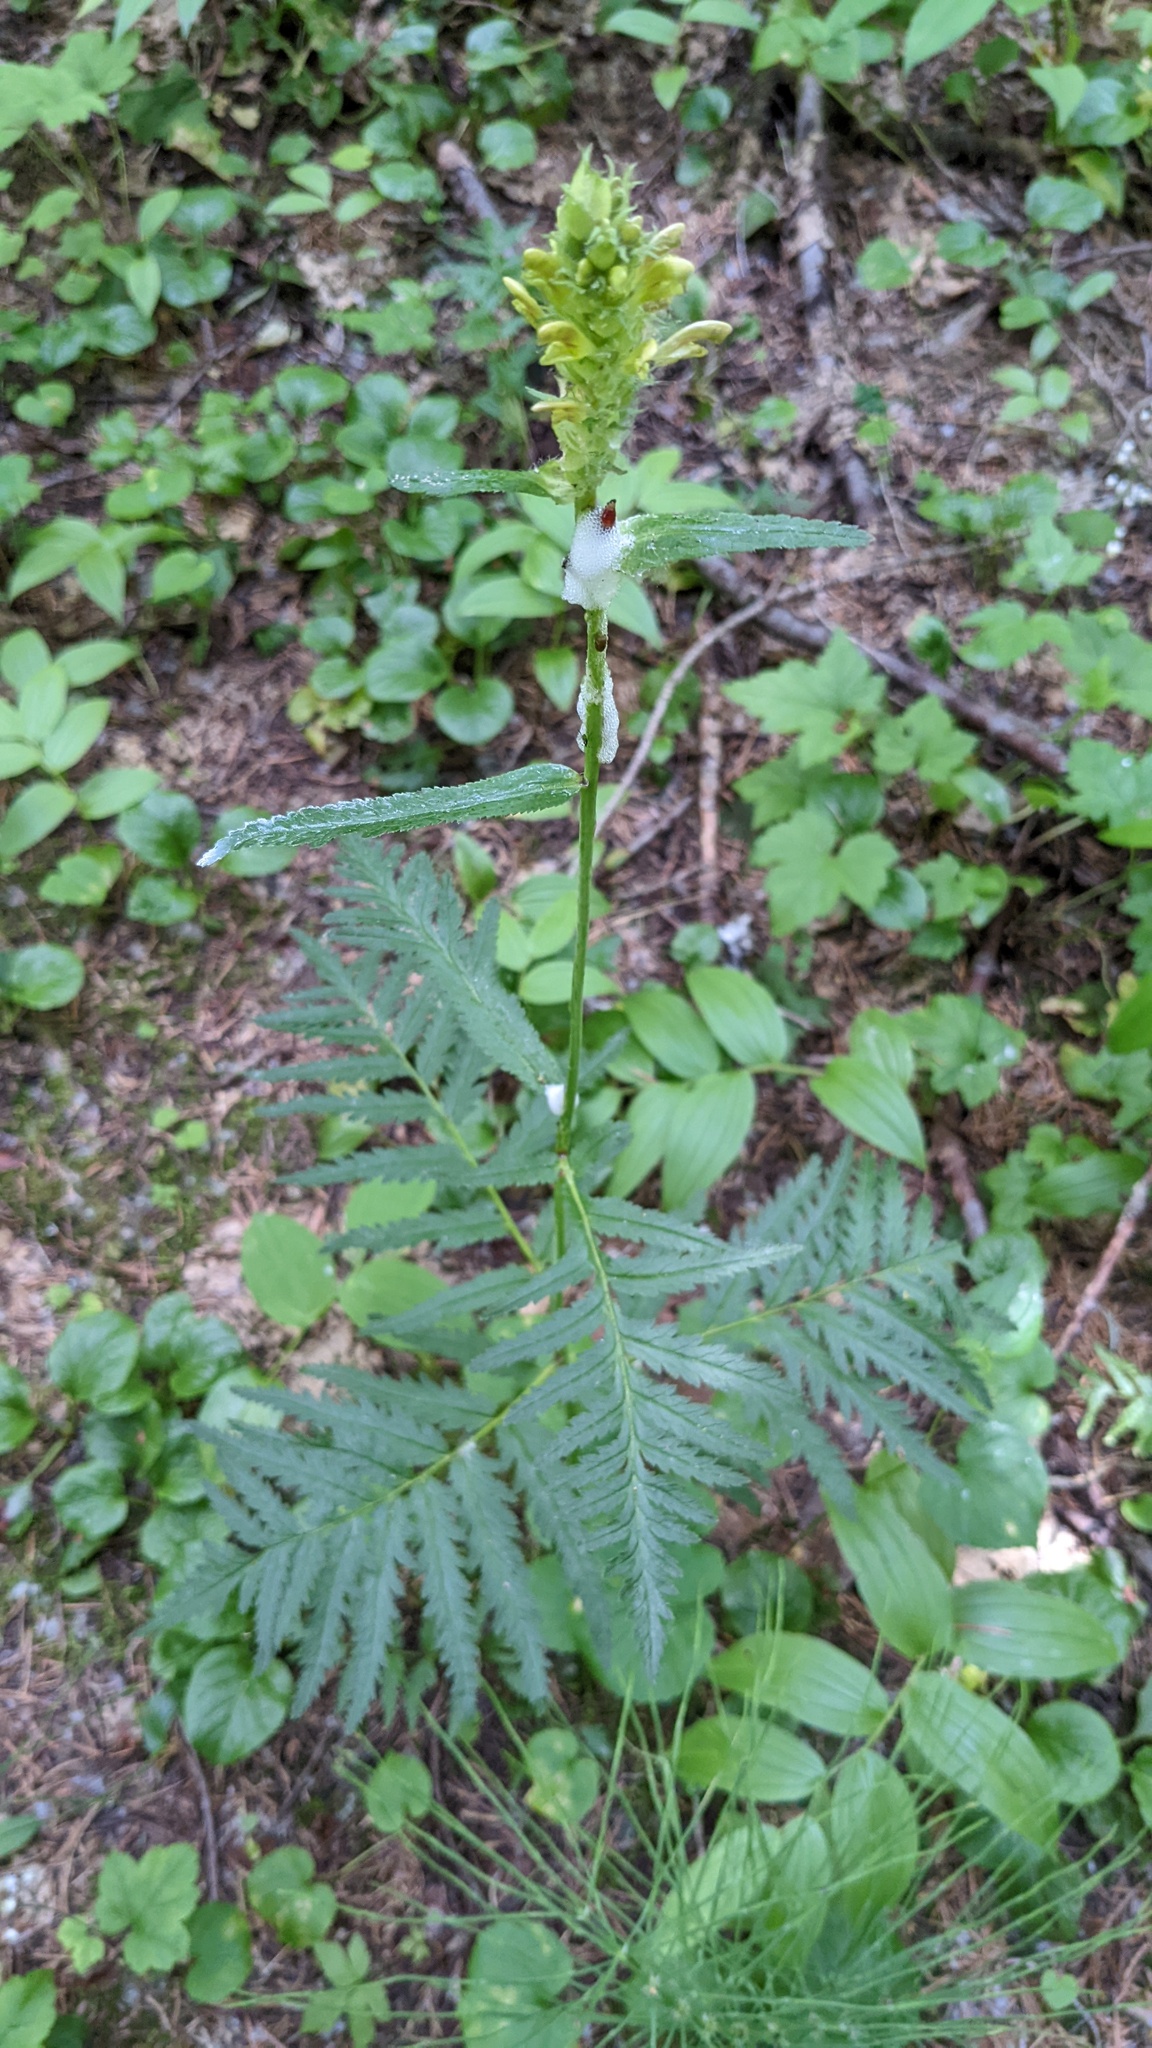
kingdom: Plantae
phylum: Tracheophyta
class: Magnoliopsida
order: Lamiales
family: Orobanchaceae
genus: Pedicularis
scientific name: Pedicularis bracteosa
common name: Bracted lousewort
